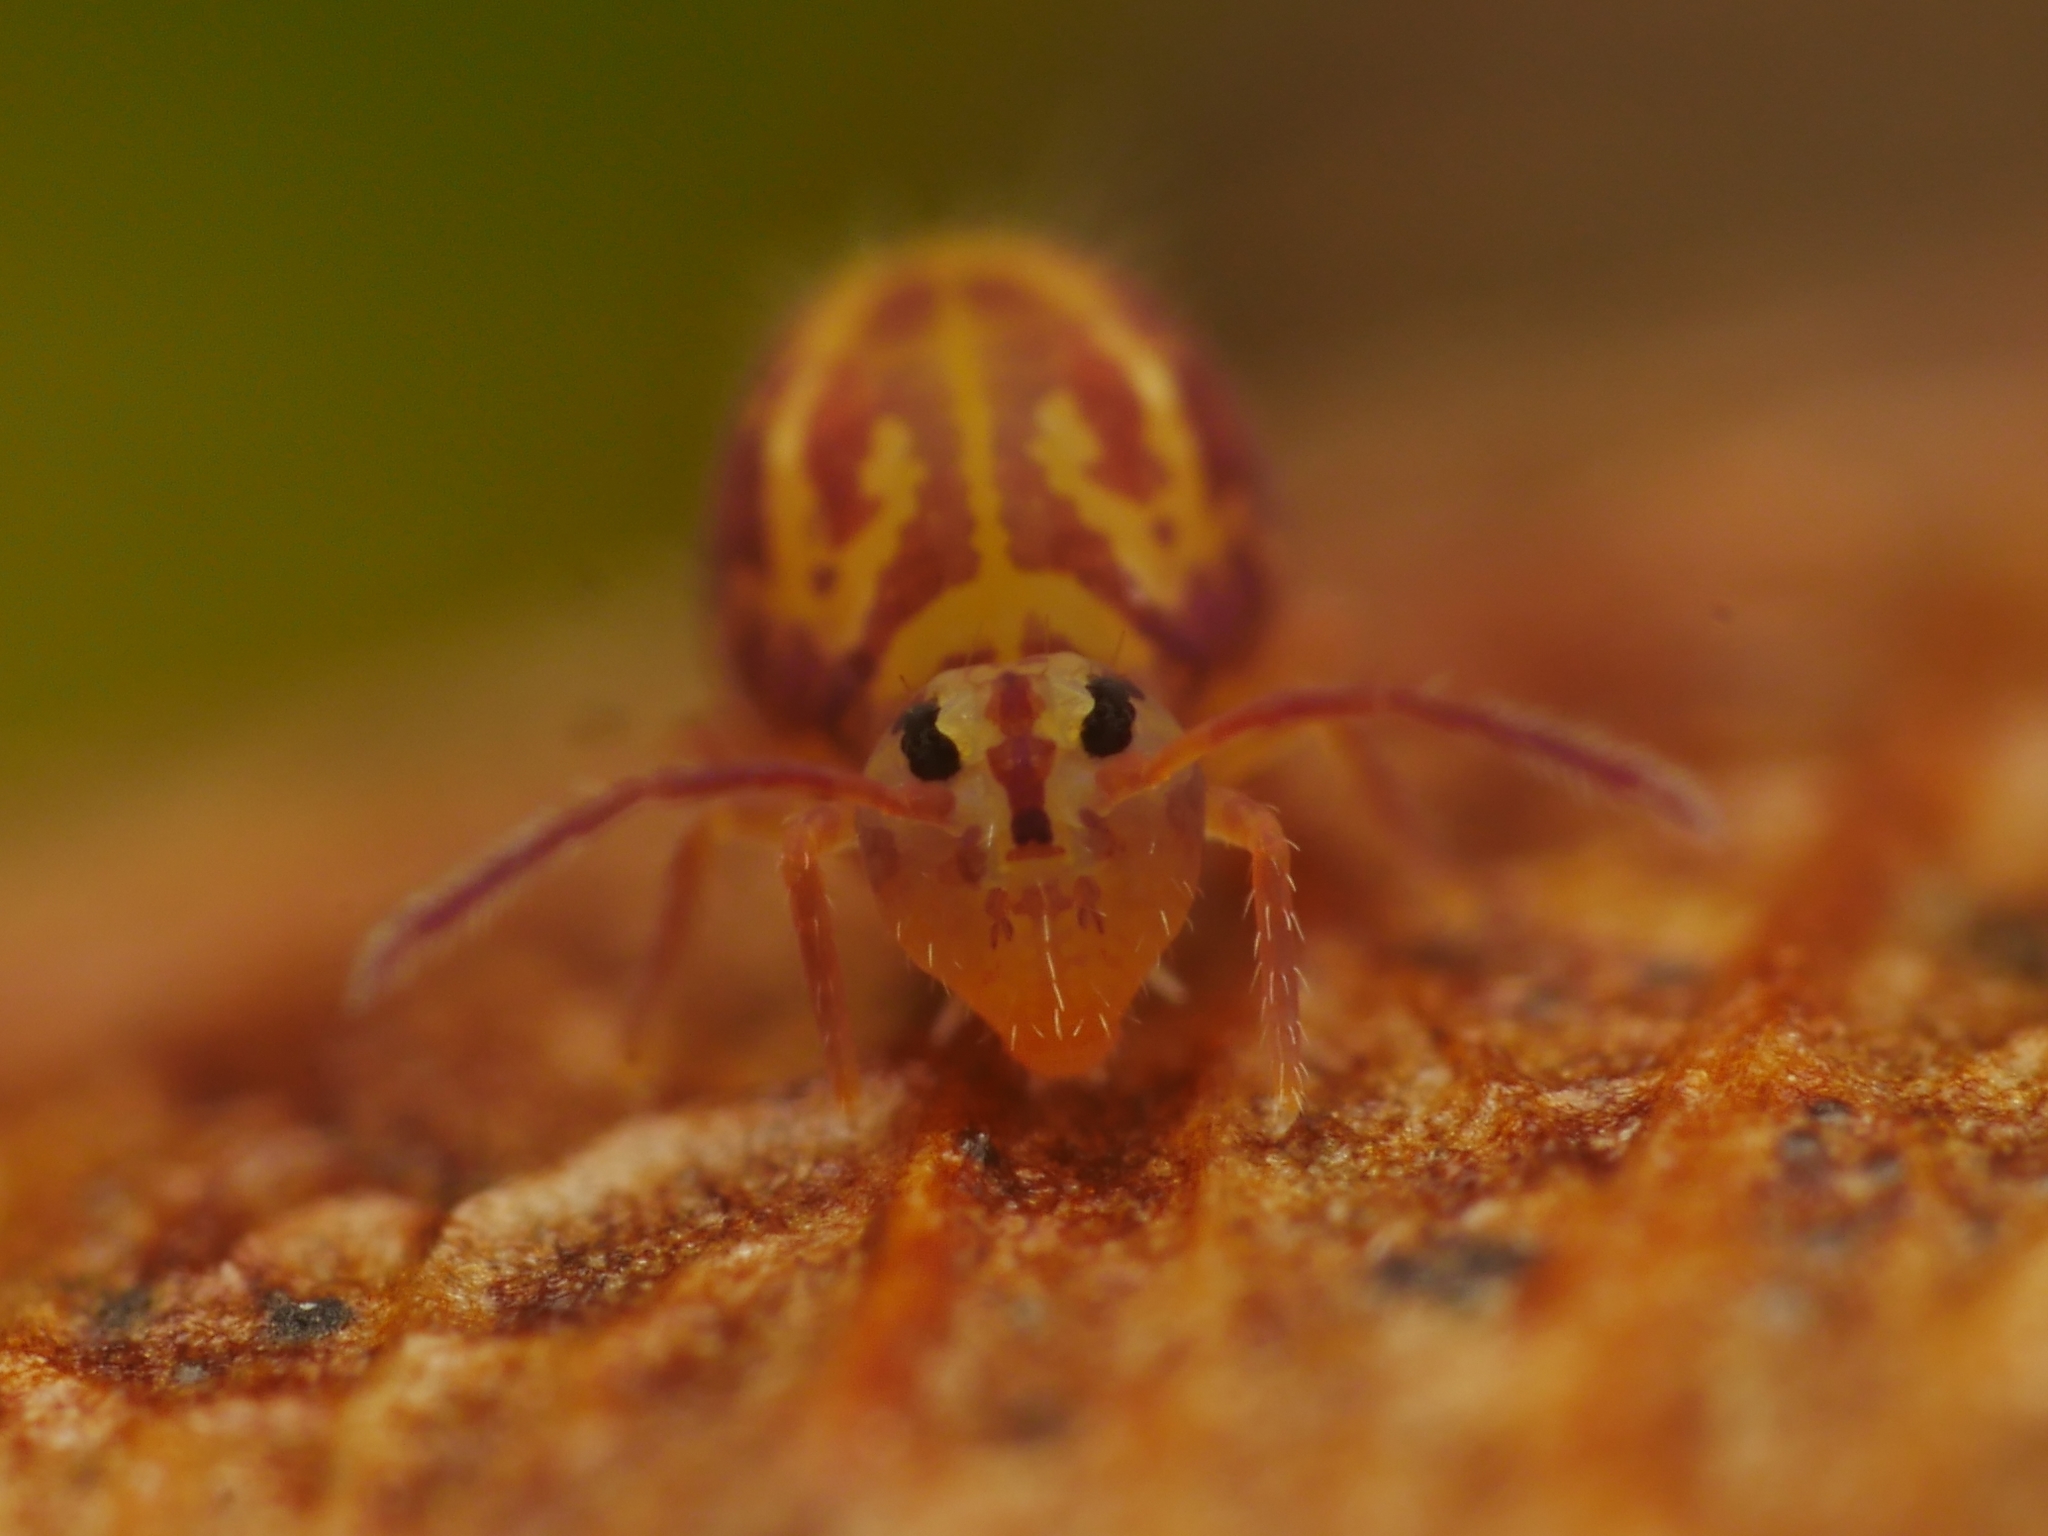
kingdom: Animalia
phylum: Arthropoda
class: Collembola
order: Symphypleona
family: Dicyrtomidae
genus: Dicyrtomina
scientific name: Dicyrtomina ornata
